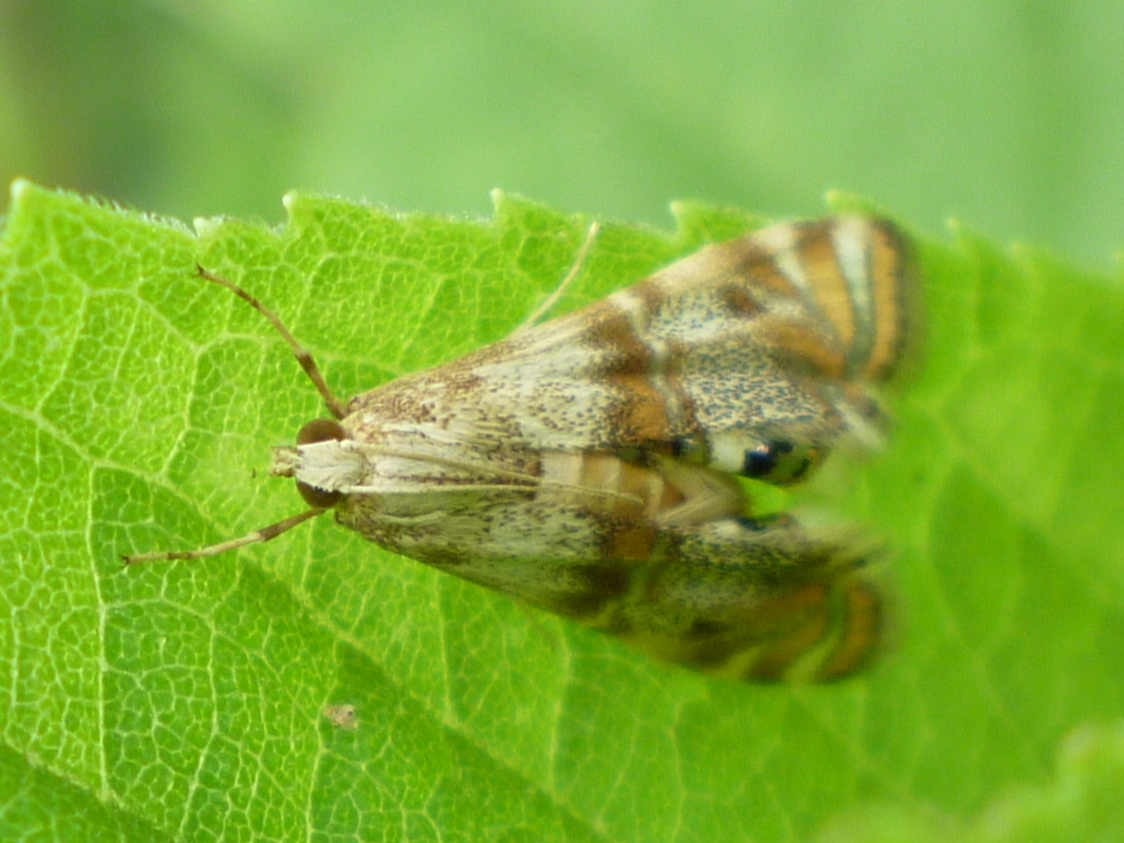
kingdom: Animalia
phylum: Arthropoda
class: Insecta
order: Lepidoptera
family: Crambidae
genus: Petrophila
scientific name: Petrophila bifascialis
